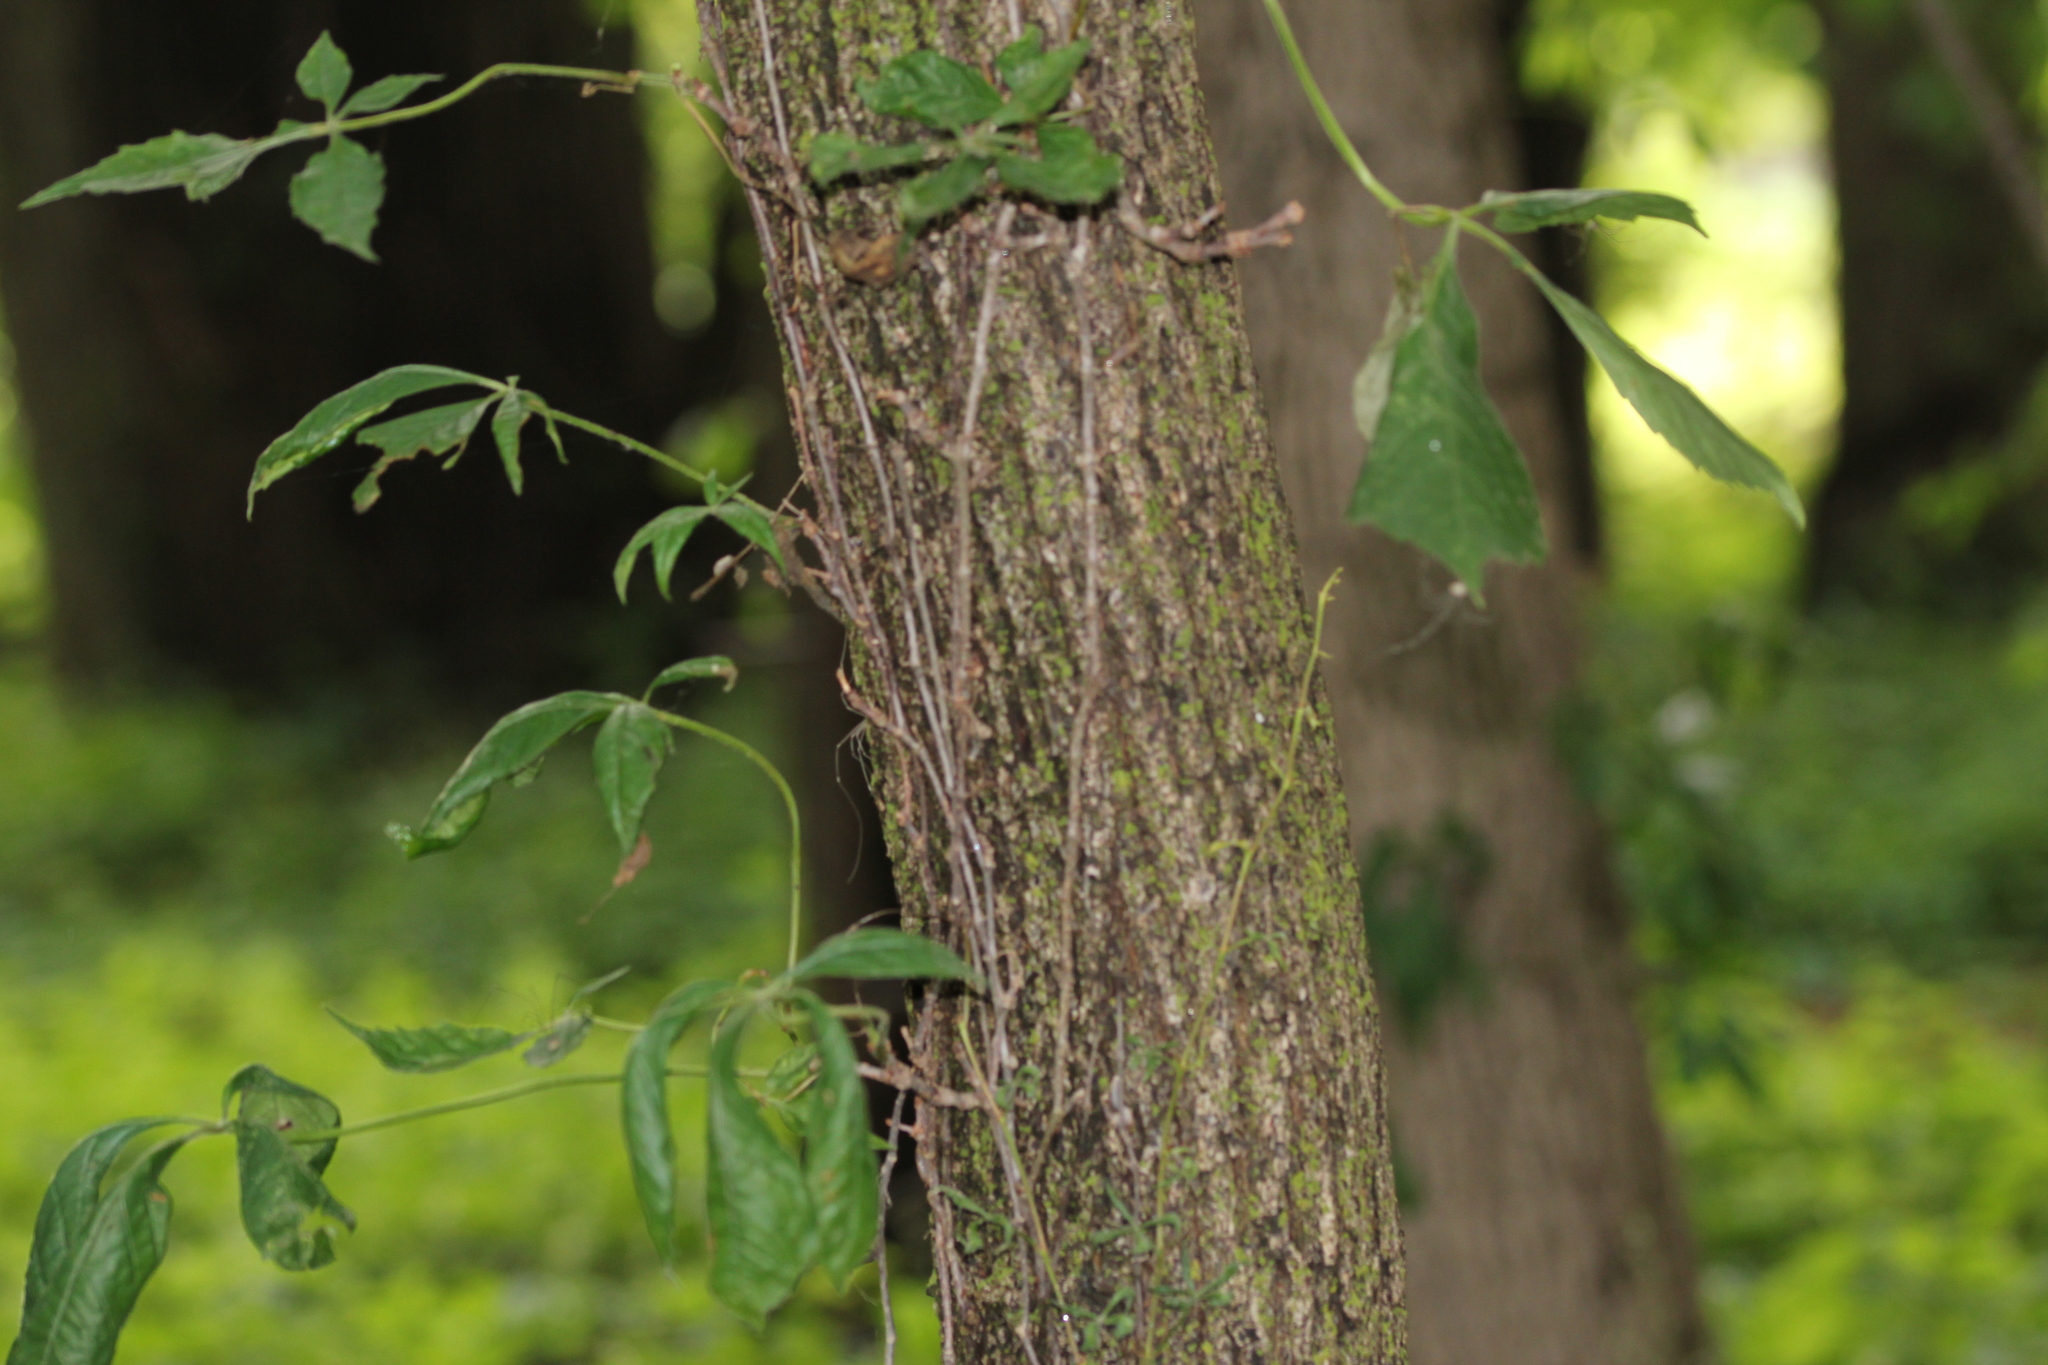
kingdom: Plantae
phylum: Tracheophyta
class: Magnoliopsida
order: Rosales
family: Ulmaceae
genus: Ulmus
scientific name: Ulmus americana
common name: American elm
